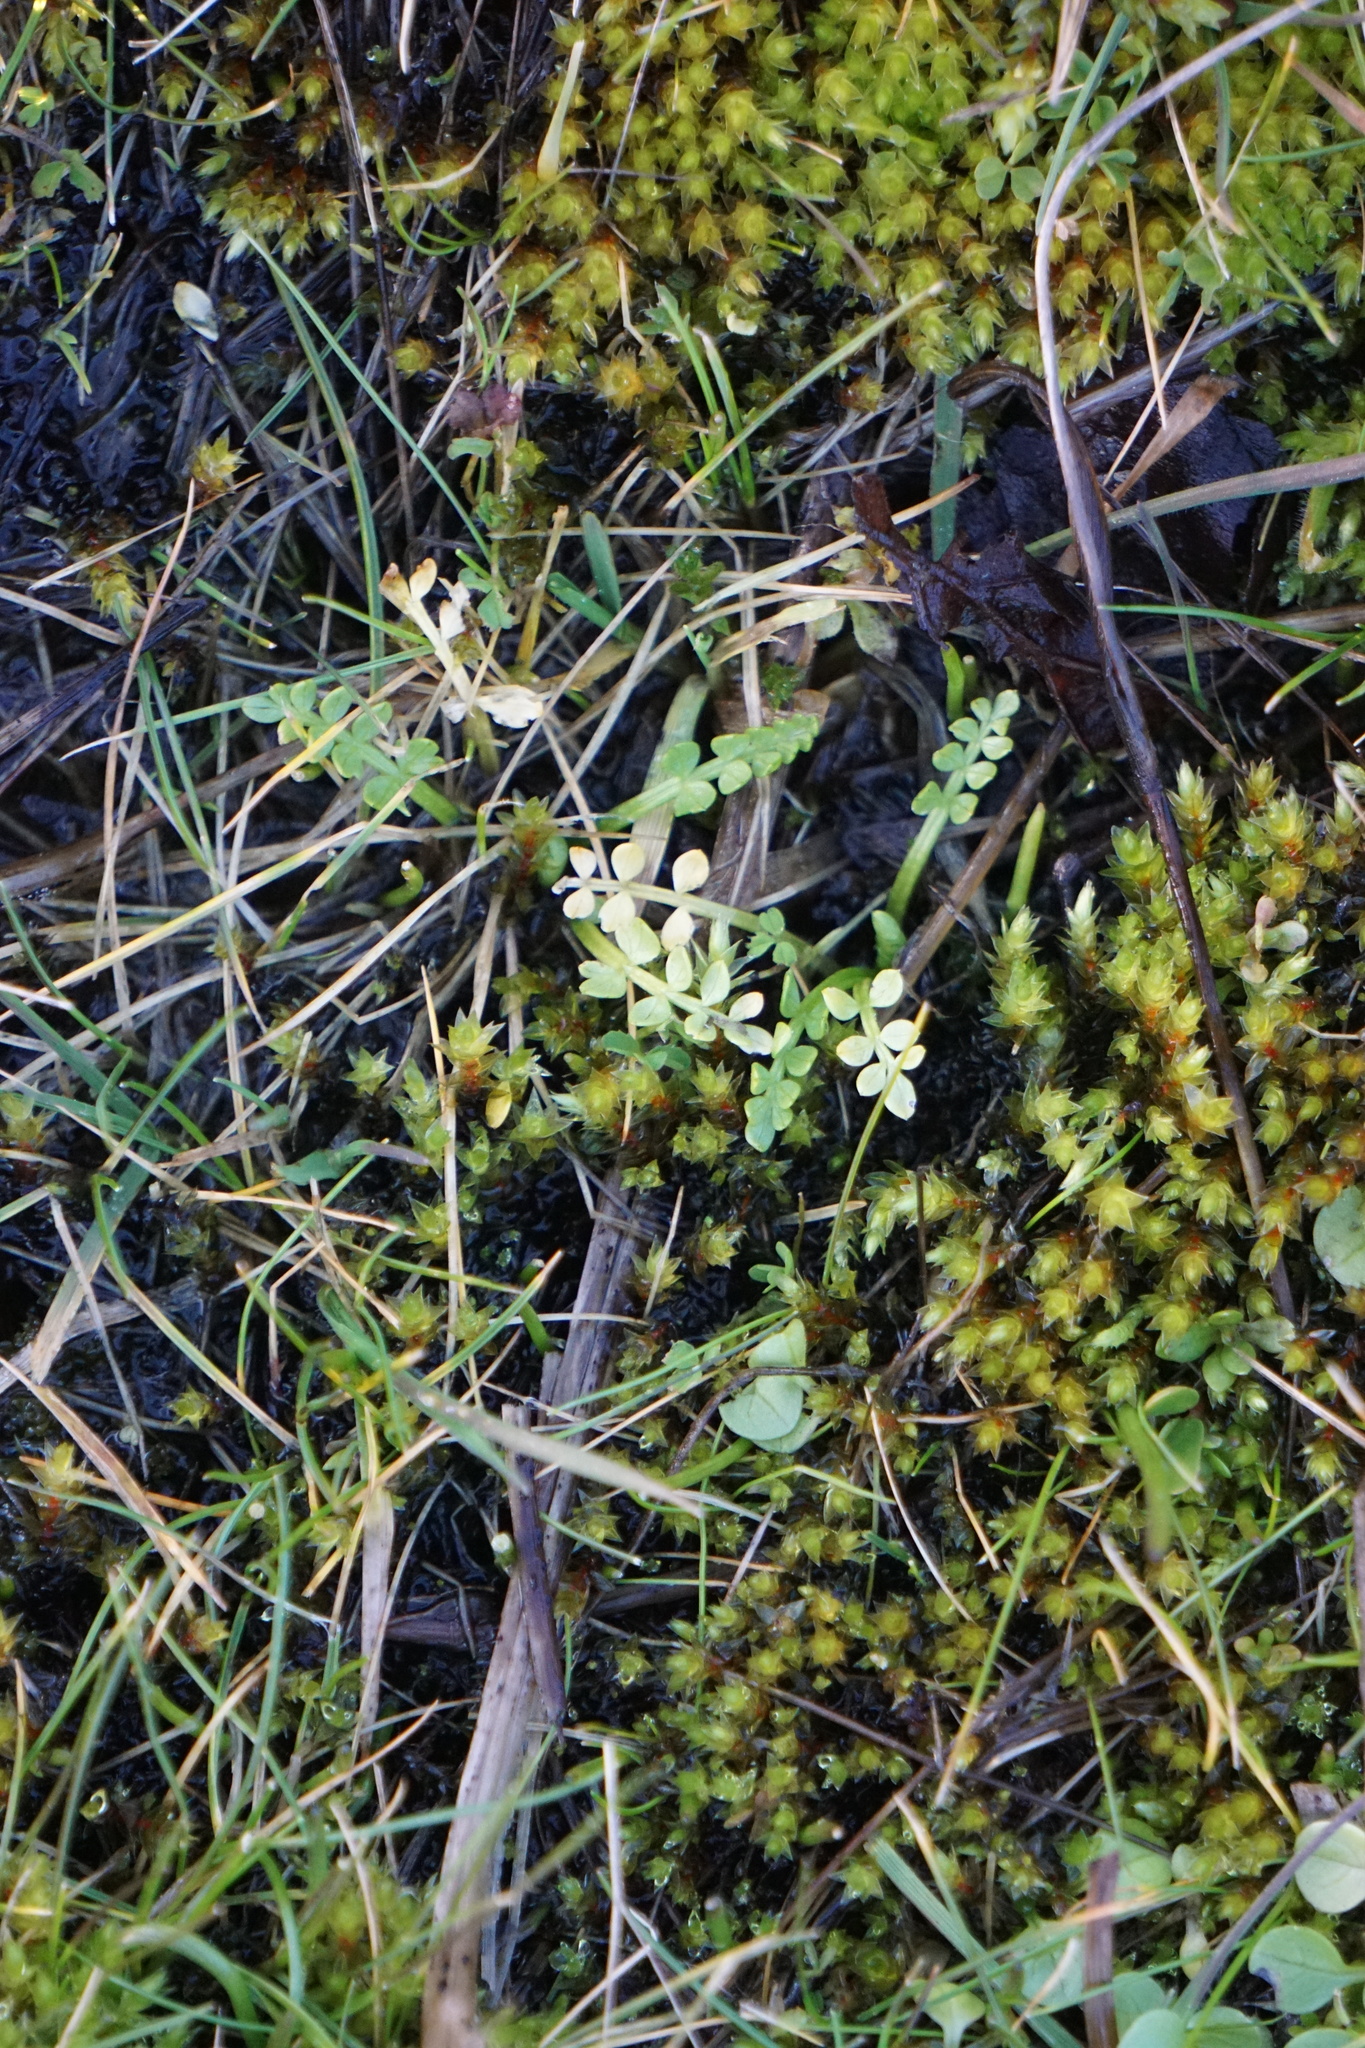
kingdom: Plantae
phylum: Tracheophyta
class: Magnoliopsida
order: Brassicales
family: Limnanthaceae
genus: Limnanthes
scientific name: Limnanthes macounii
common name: Macoun's meadowfoam
